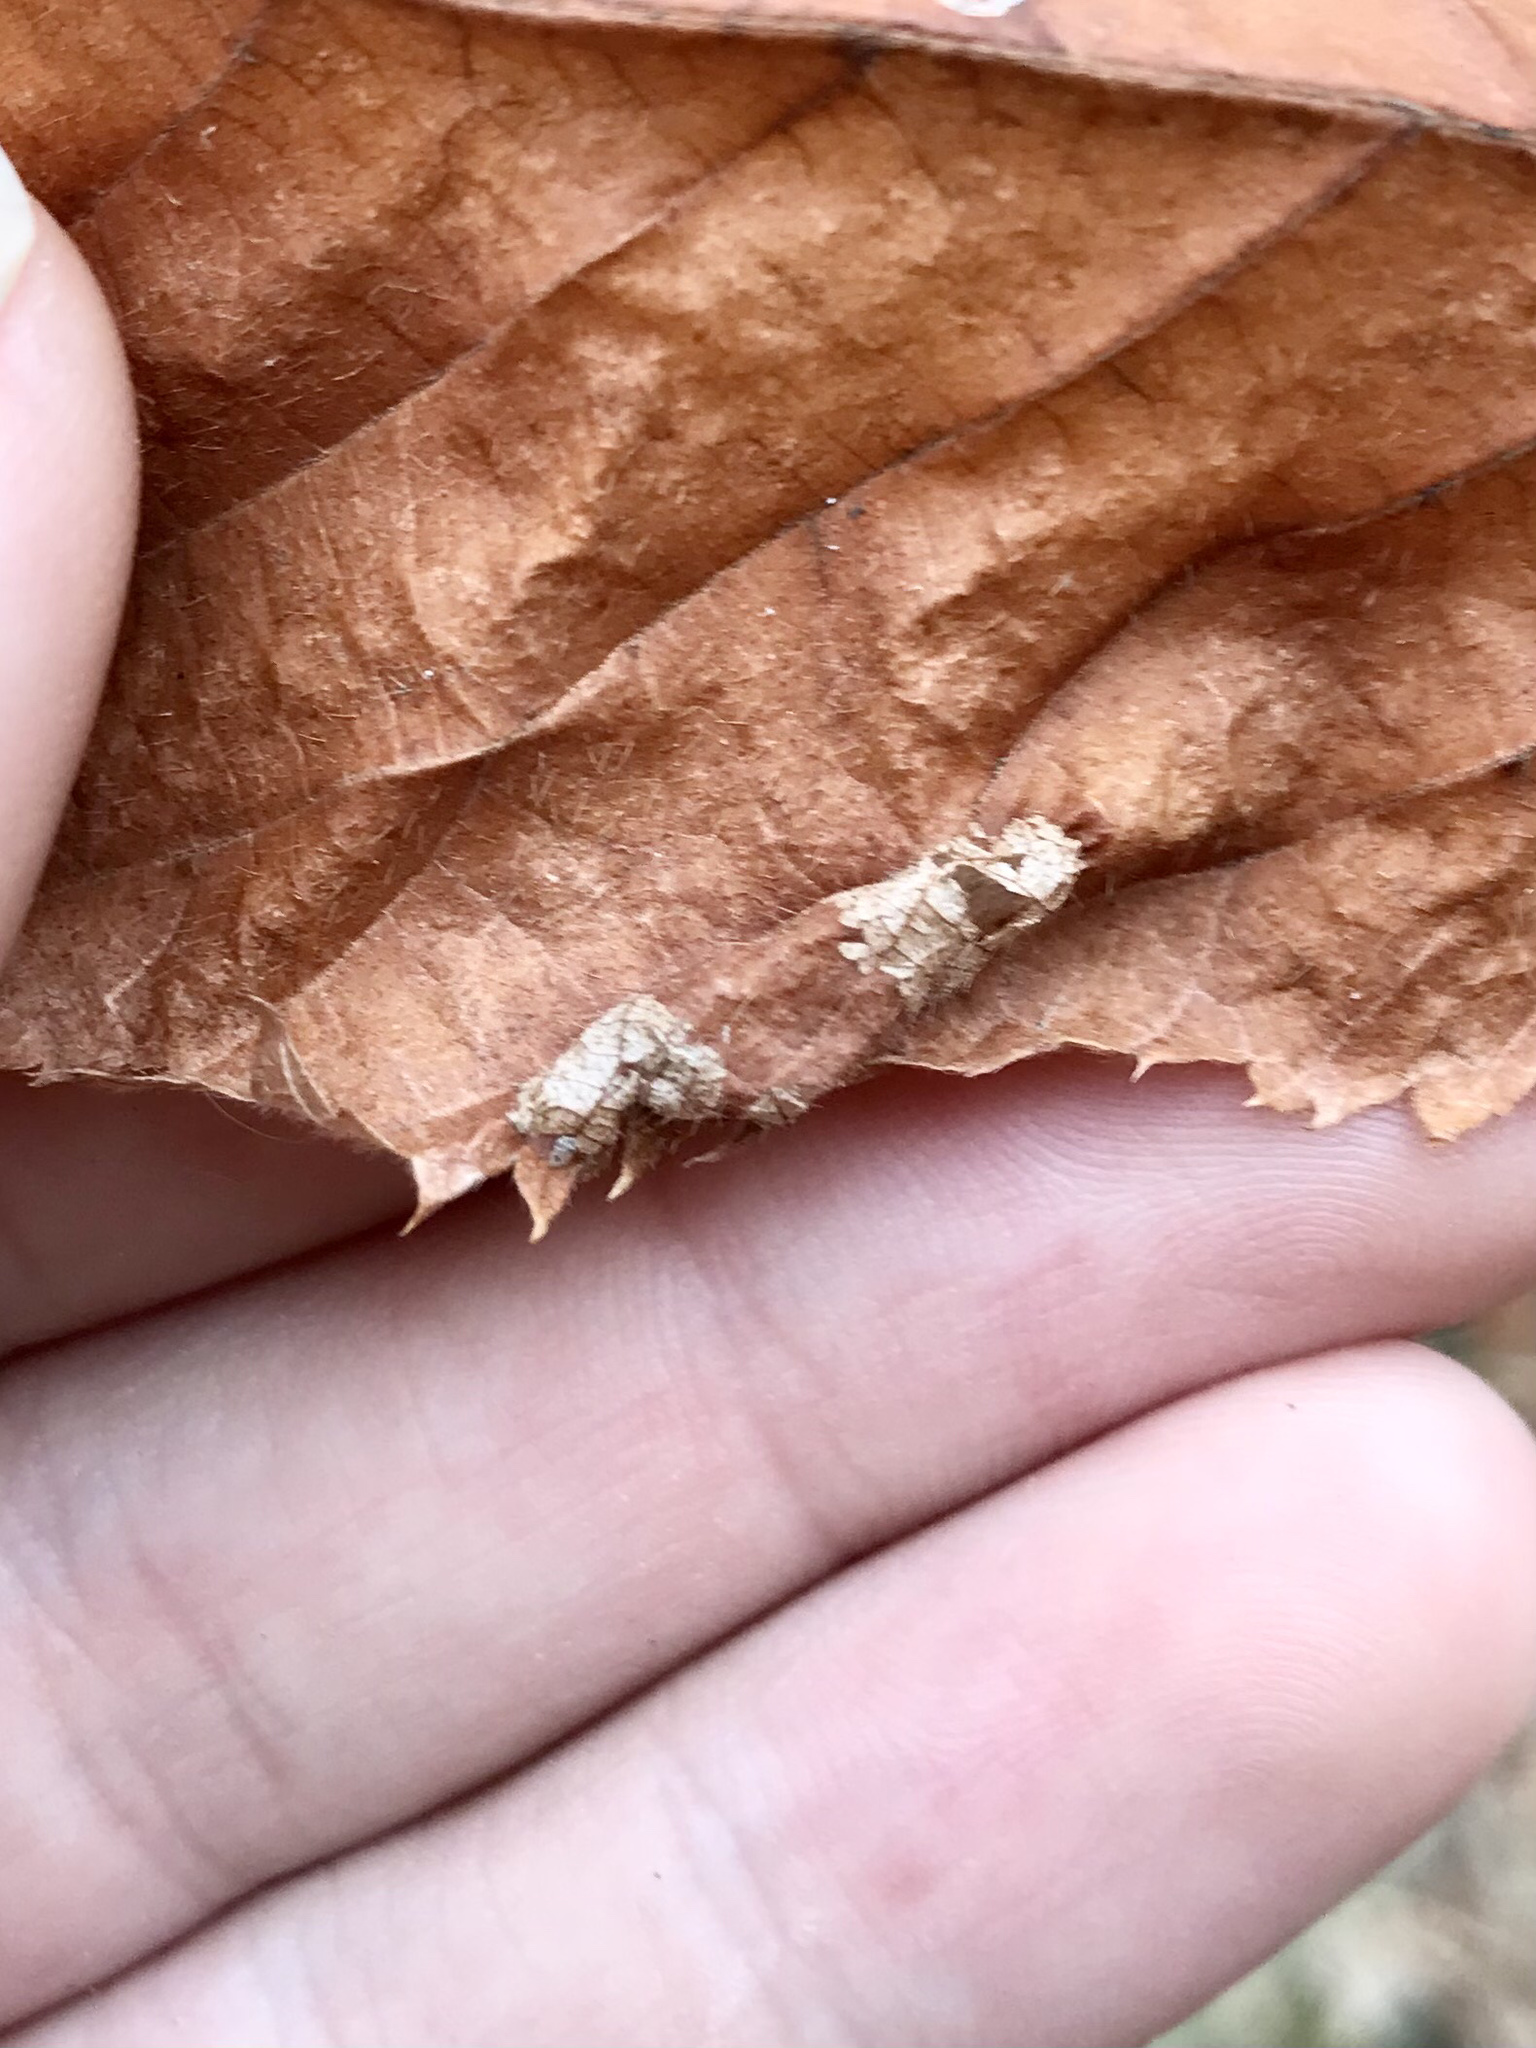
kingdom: Animalia
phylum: Arthropoda
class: Insecta
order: Lepidoptera
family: Gracillariidae
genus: Phyllonorycter
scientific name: Phyllonorycter ostryaefoliella
